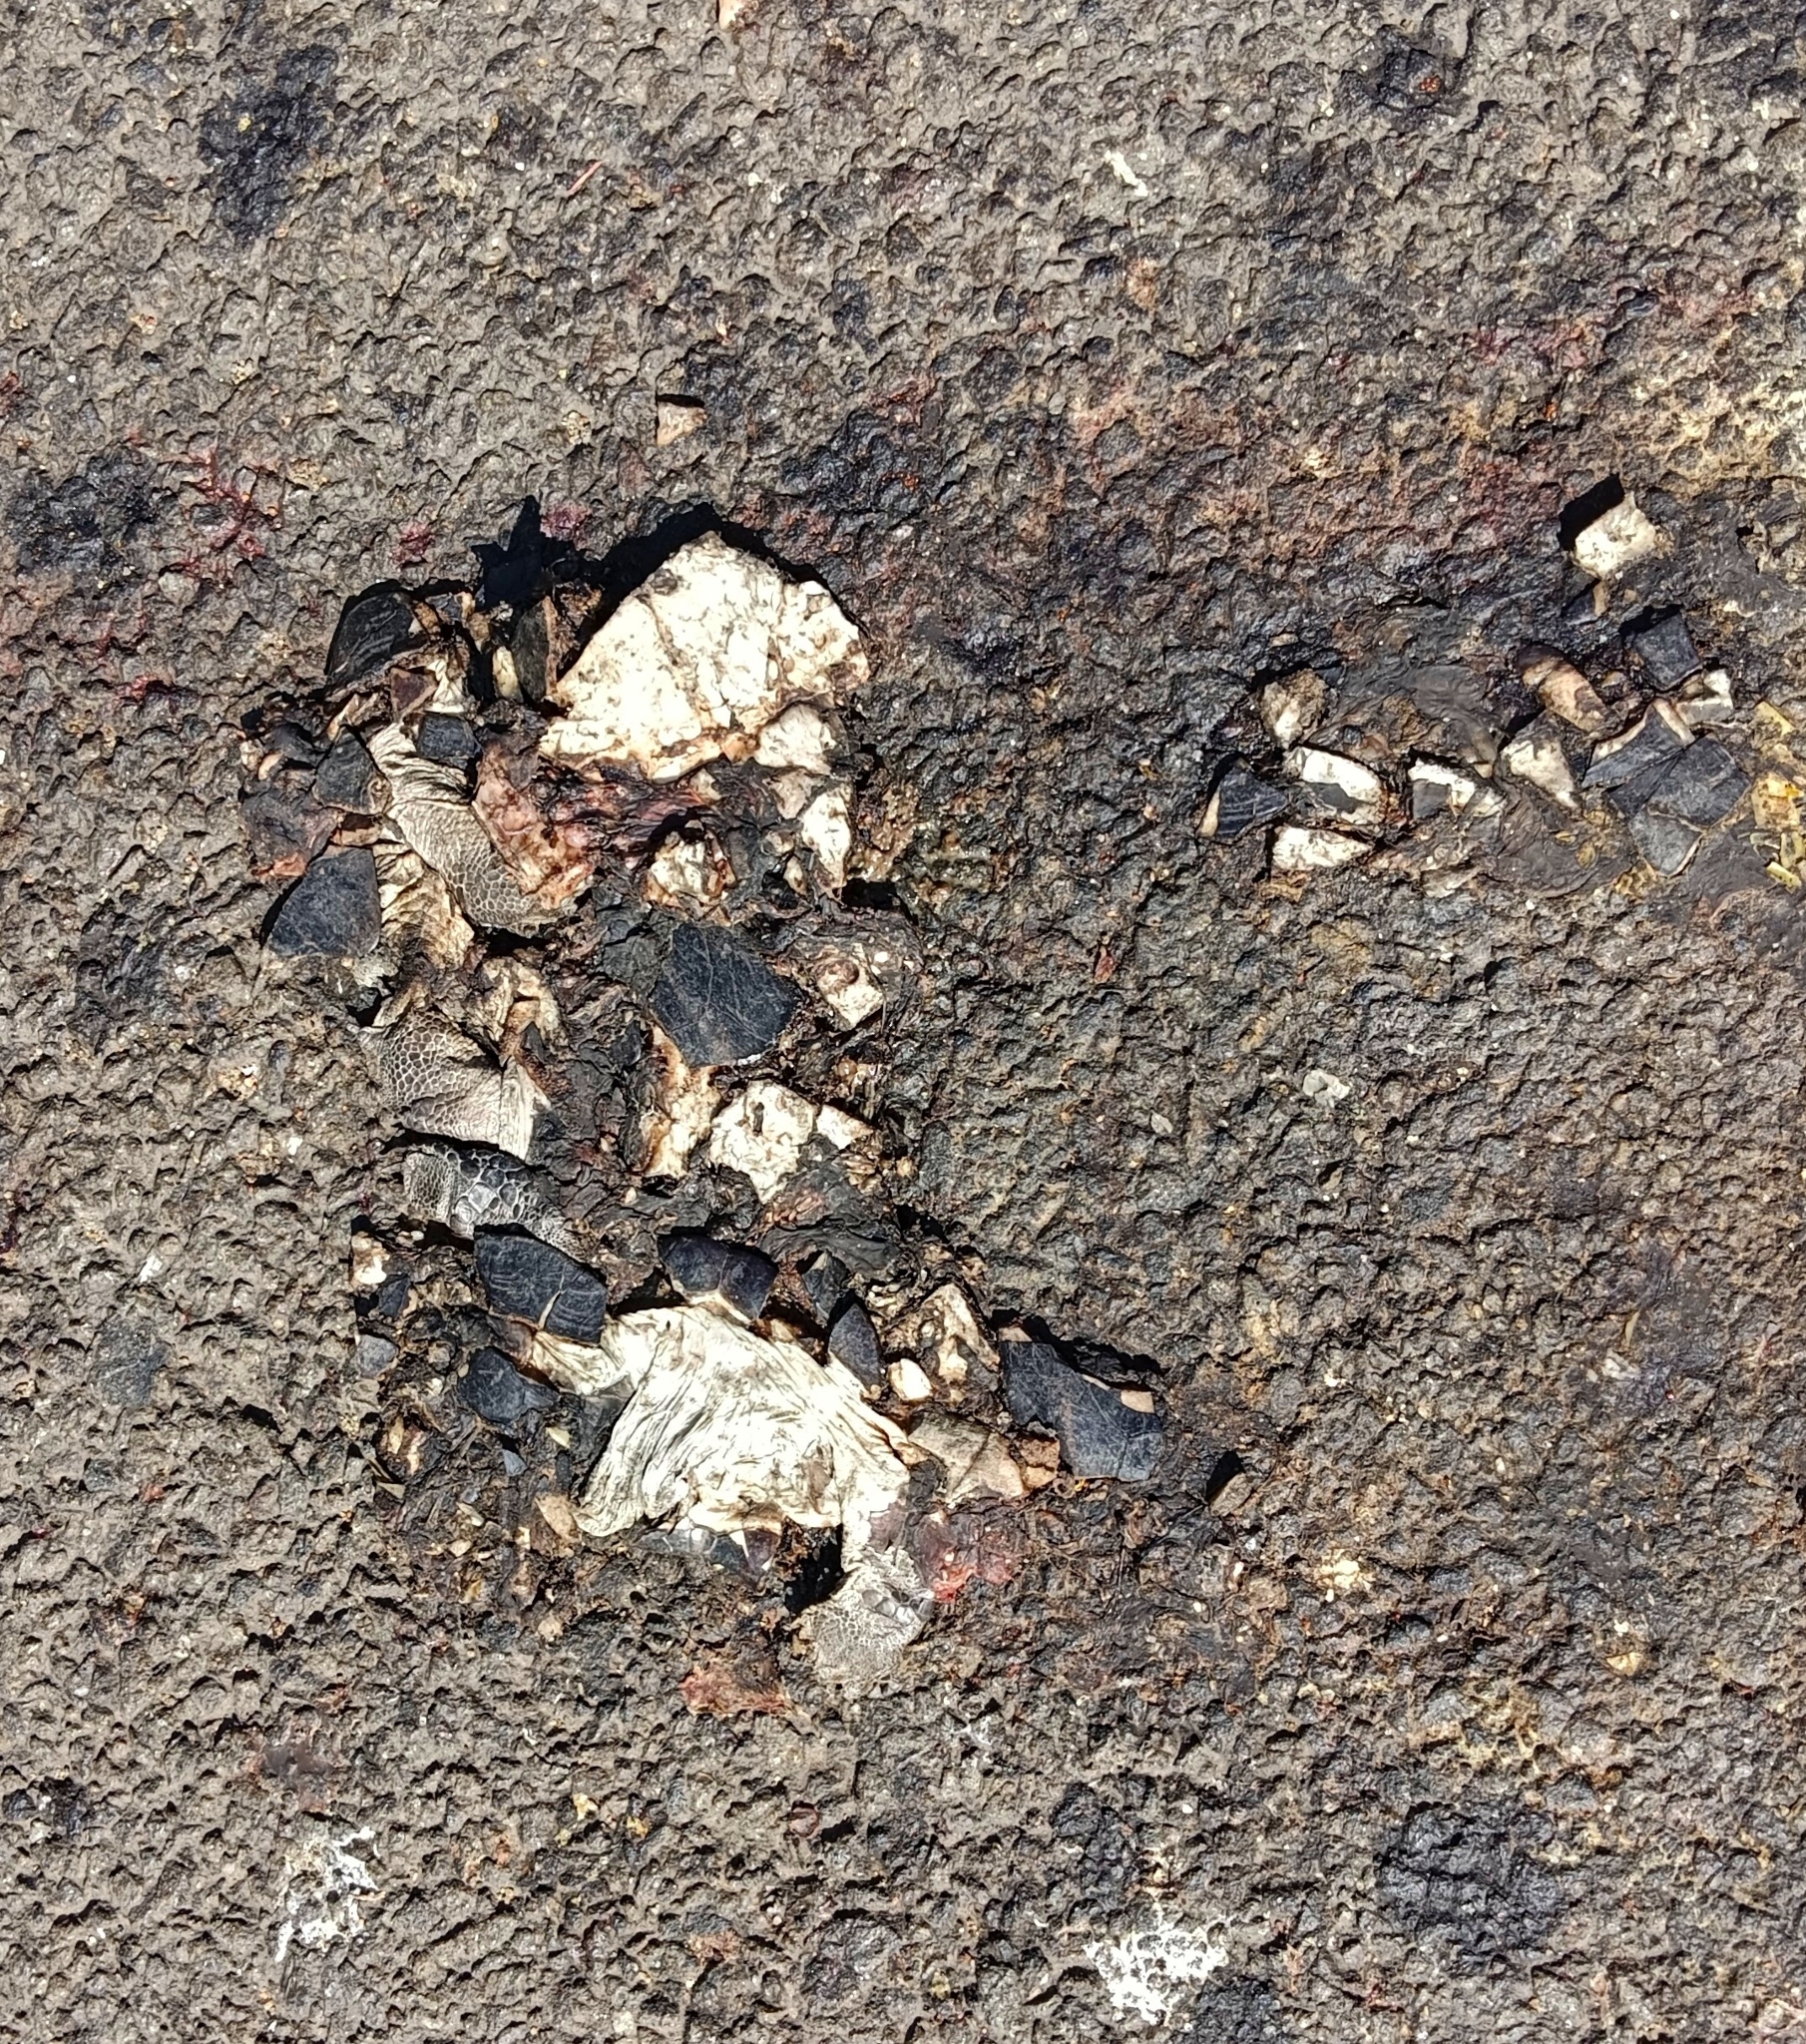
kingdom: Animalia
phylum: Chordata
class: Testudines
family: Geoemydidae
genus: Melanochelys
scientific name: Melanochelys trijuga
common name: Indian black turtle
